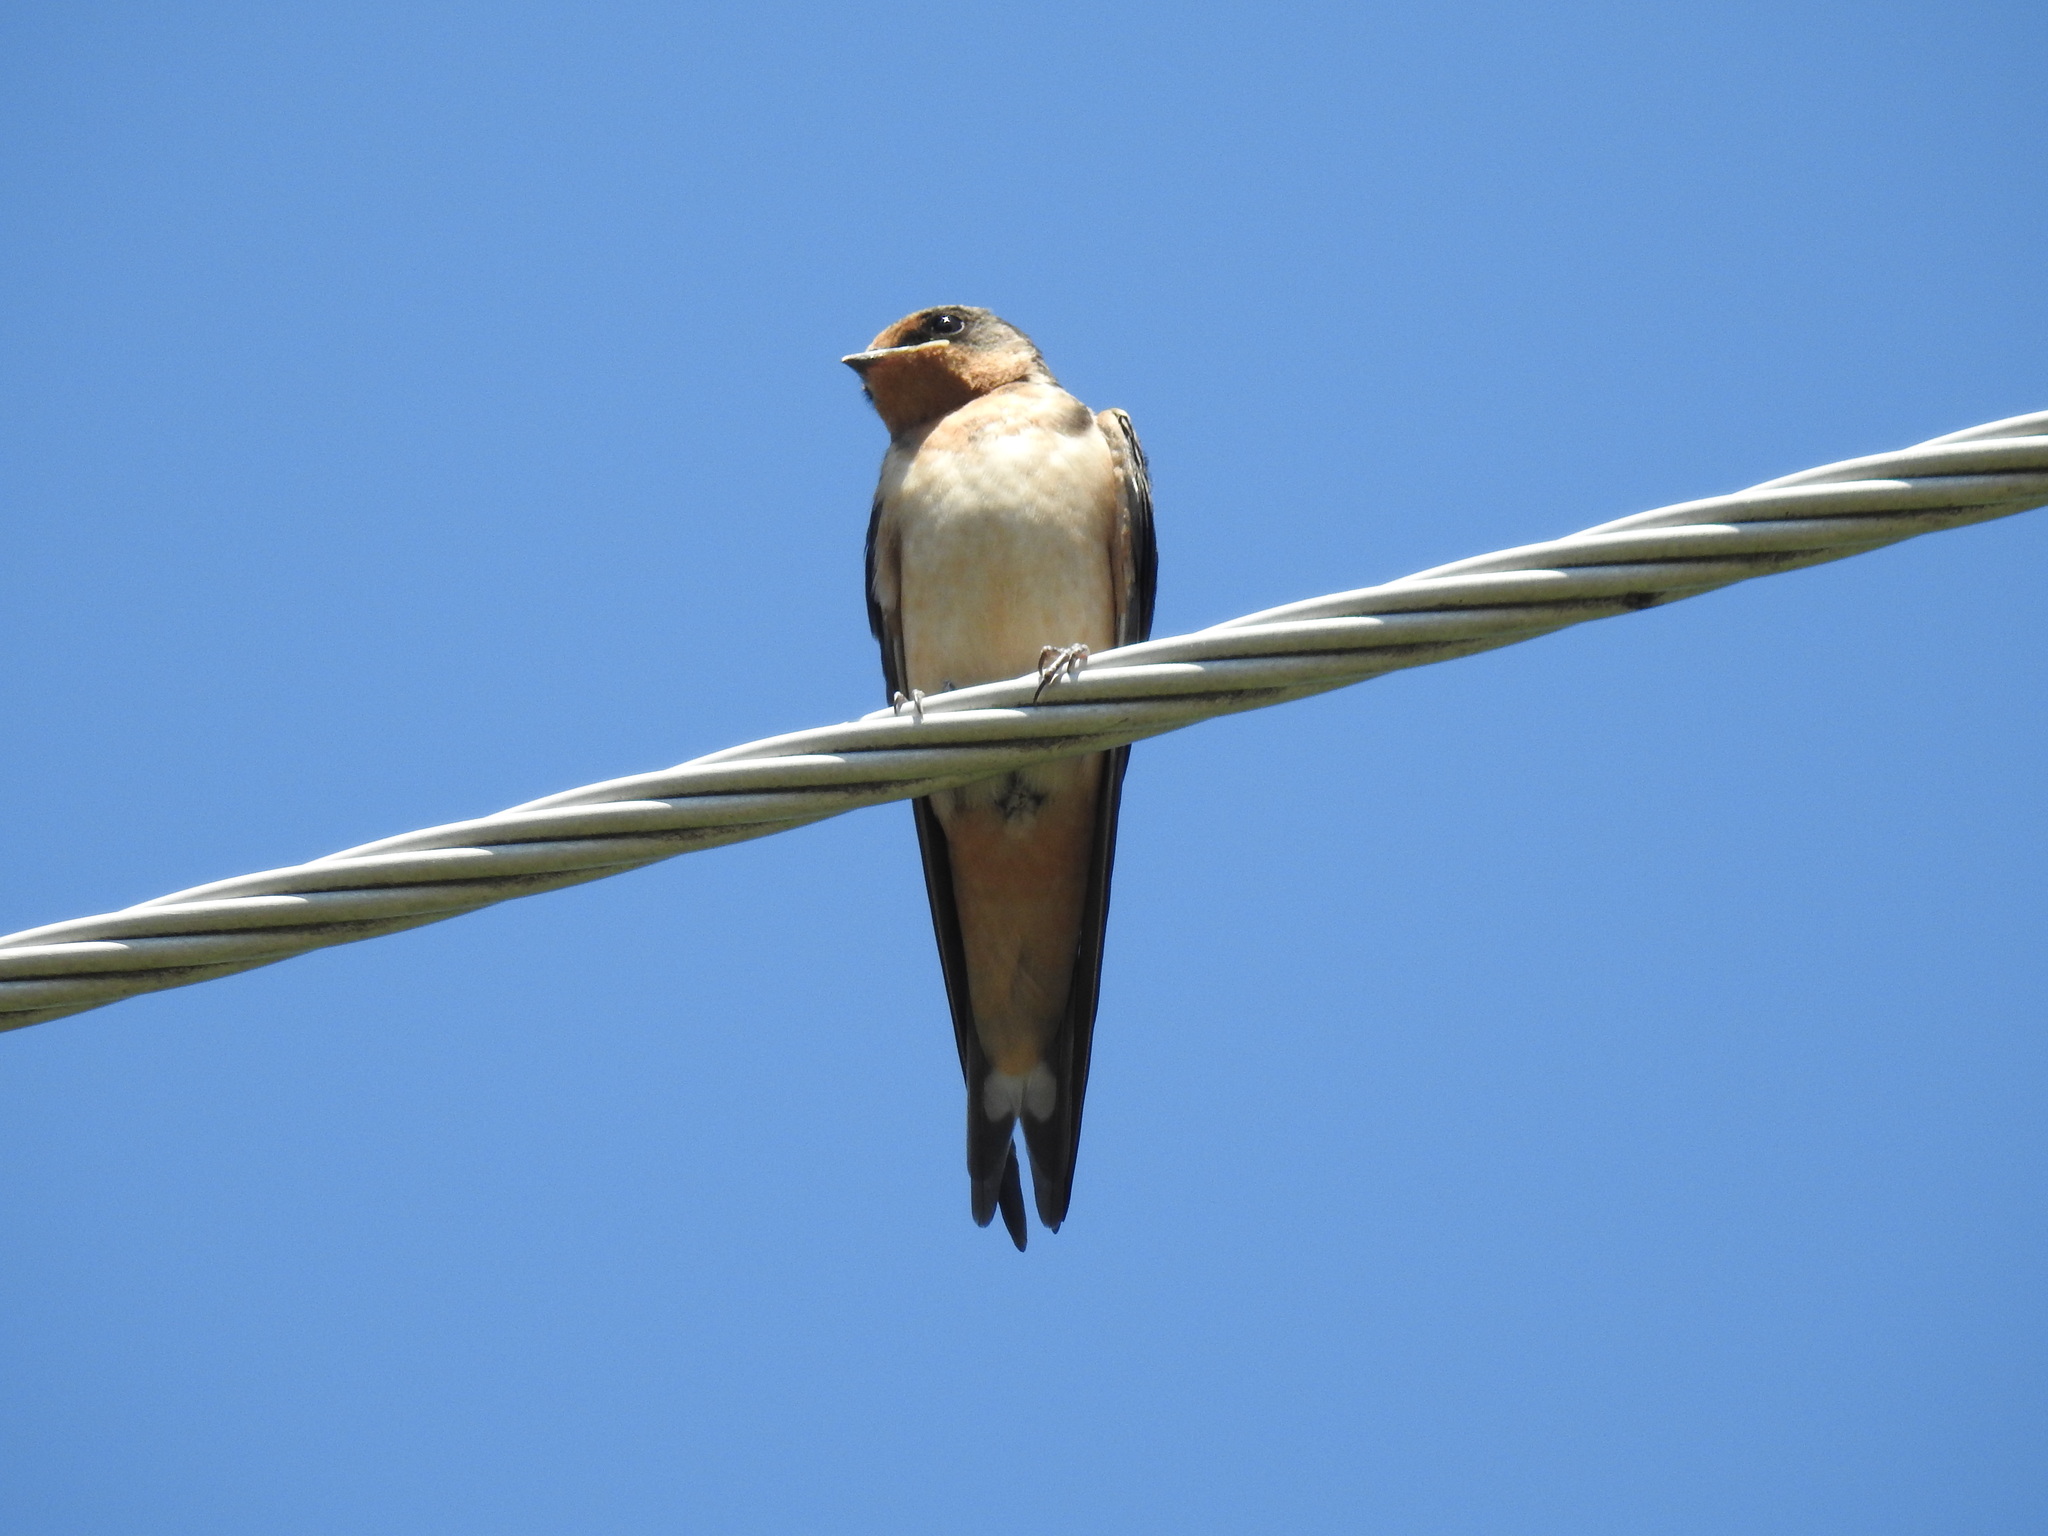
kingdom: Animalia
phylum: Chordata
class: Aves
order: Passeriformes
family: Hirundinidae
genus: Hirundo
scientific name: Hirundo rustica
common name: Barn swallow
